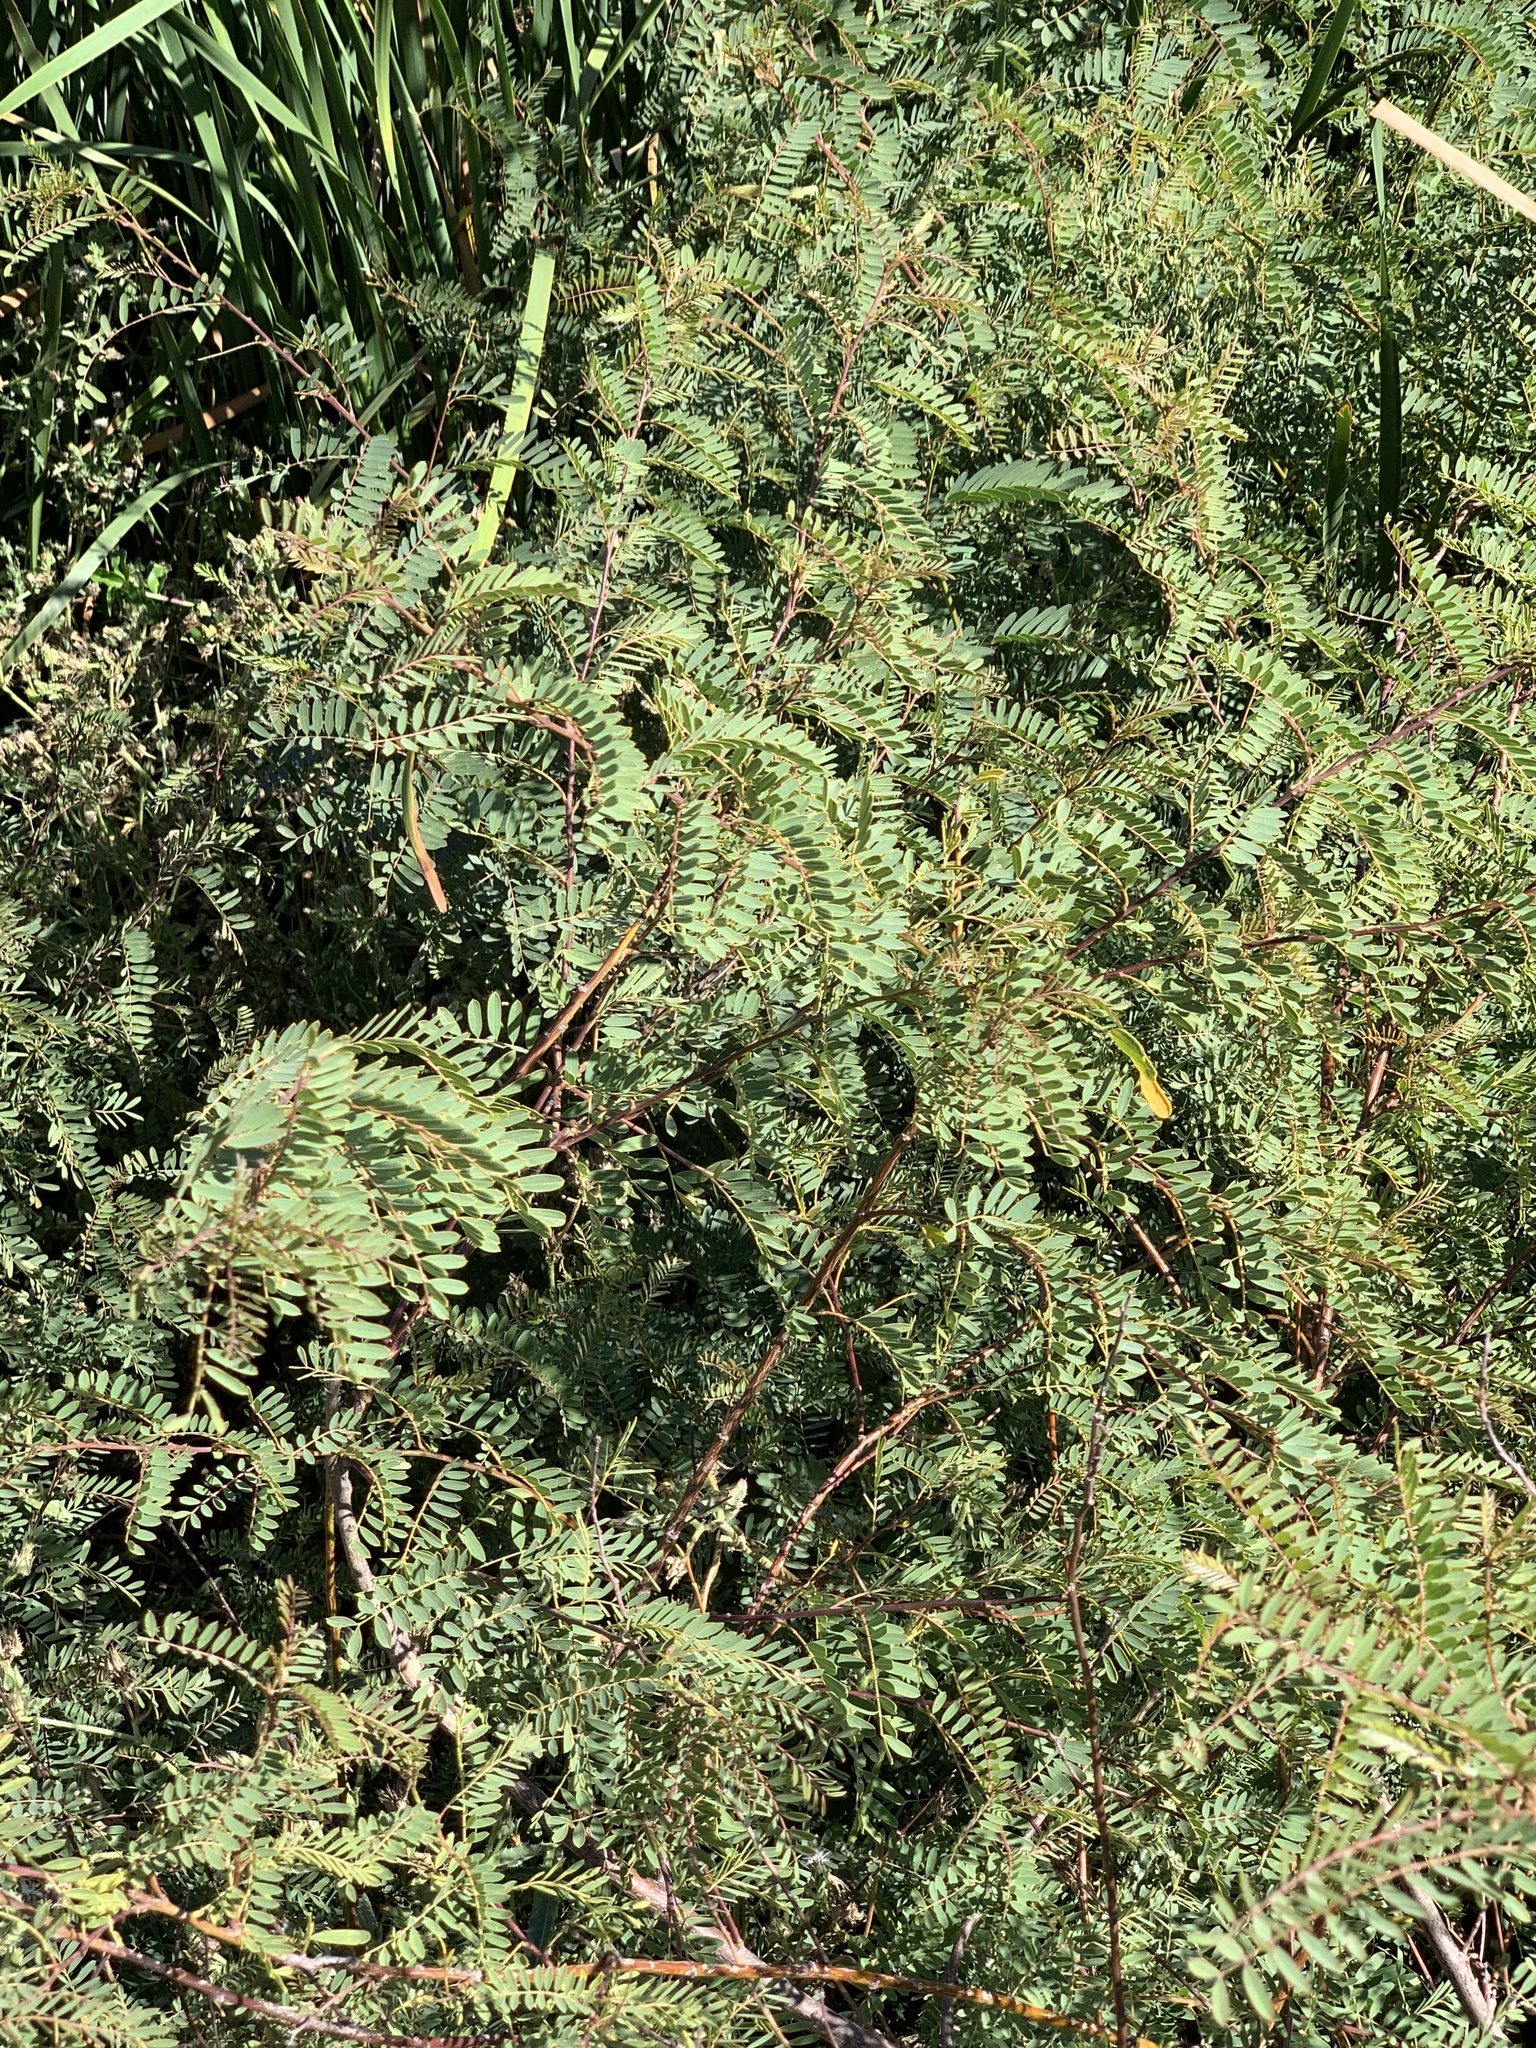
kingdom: Plantae
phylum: Tracheophyta
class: Magnoliopsida
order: Fabales
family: Fabaceae
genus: Sesbania
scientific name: Sesbania punicea
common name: Rattlebox
